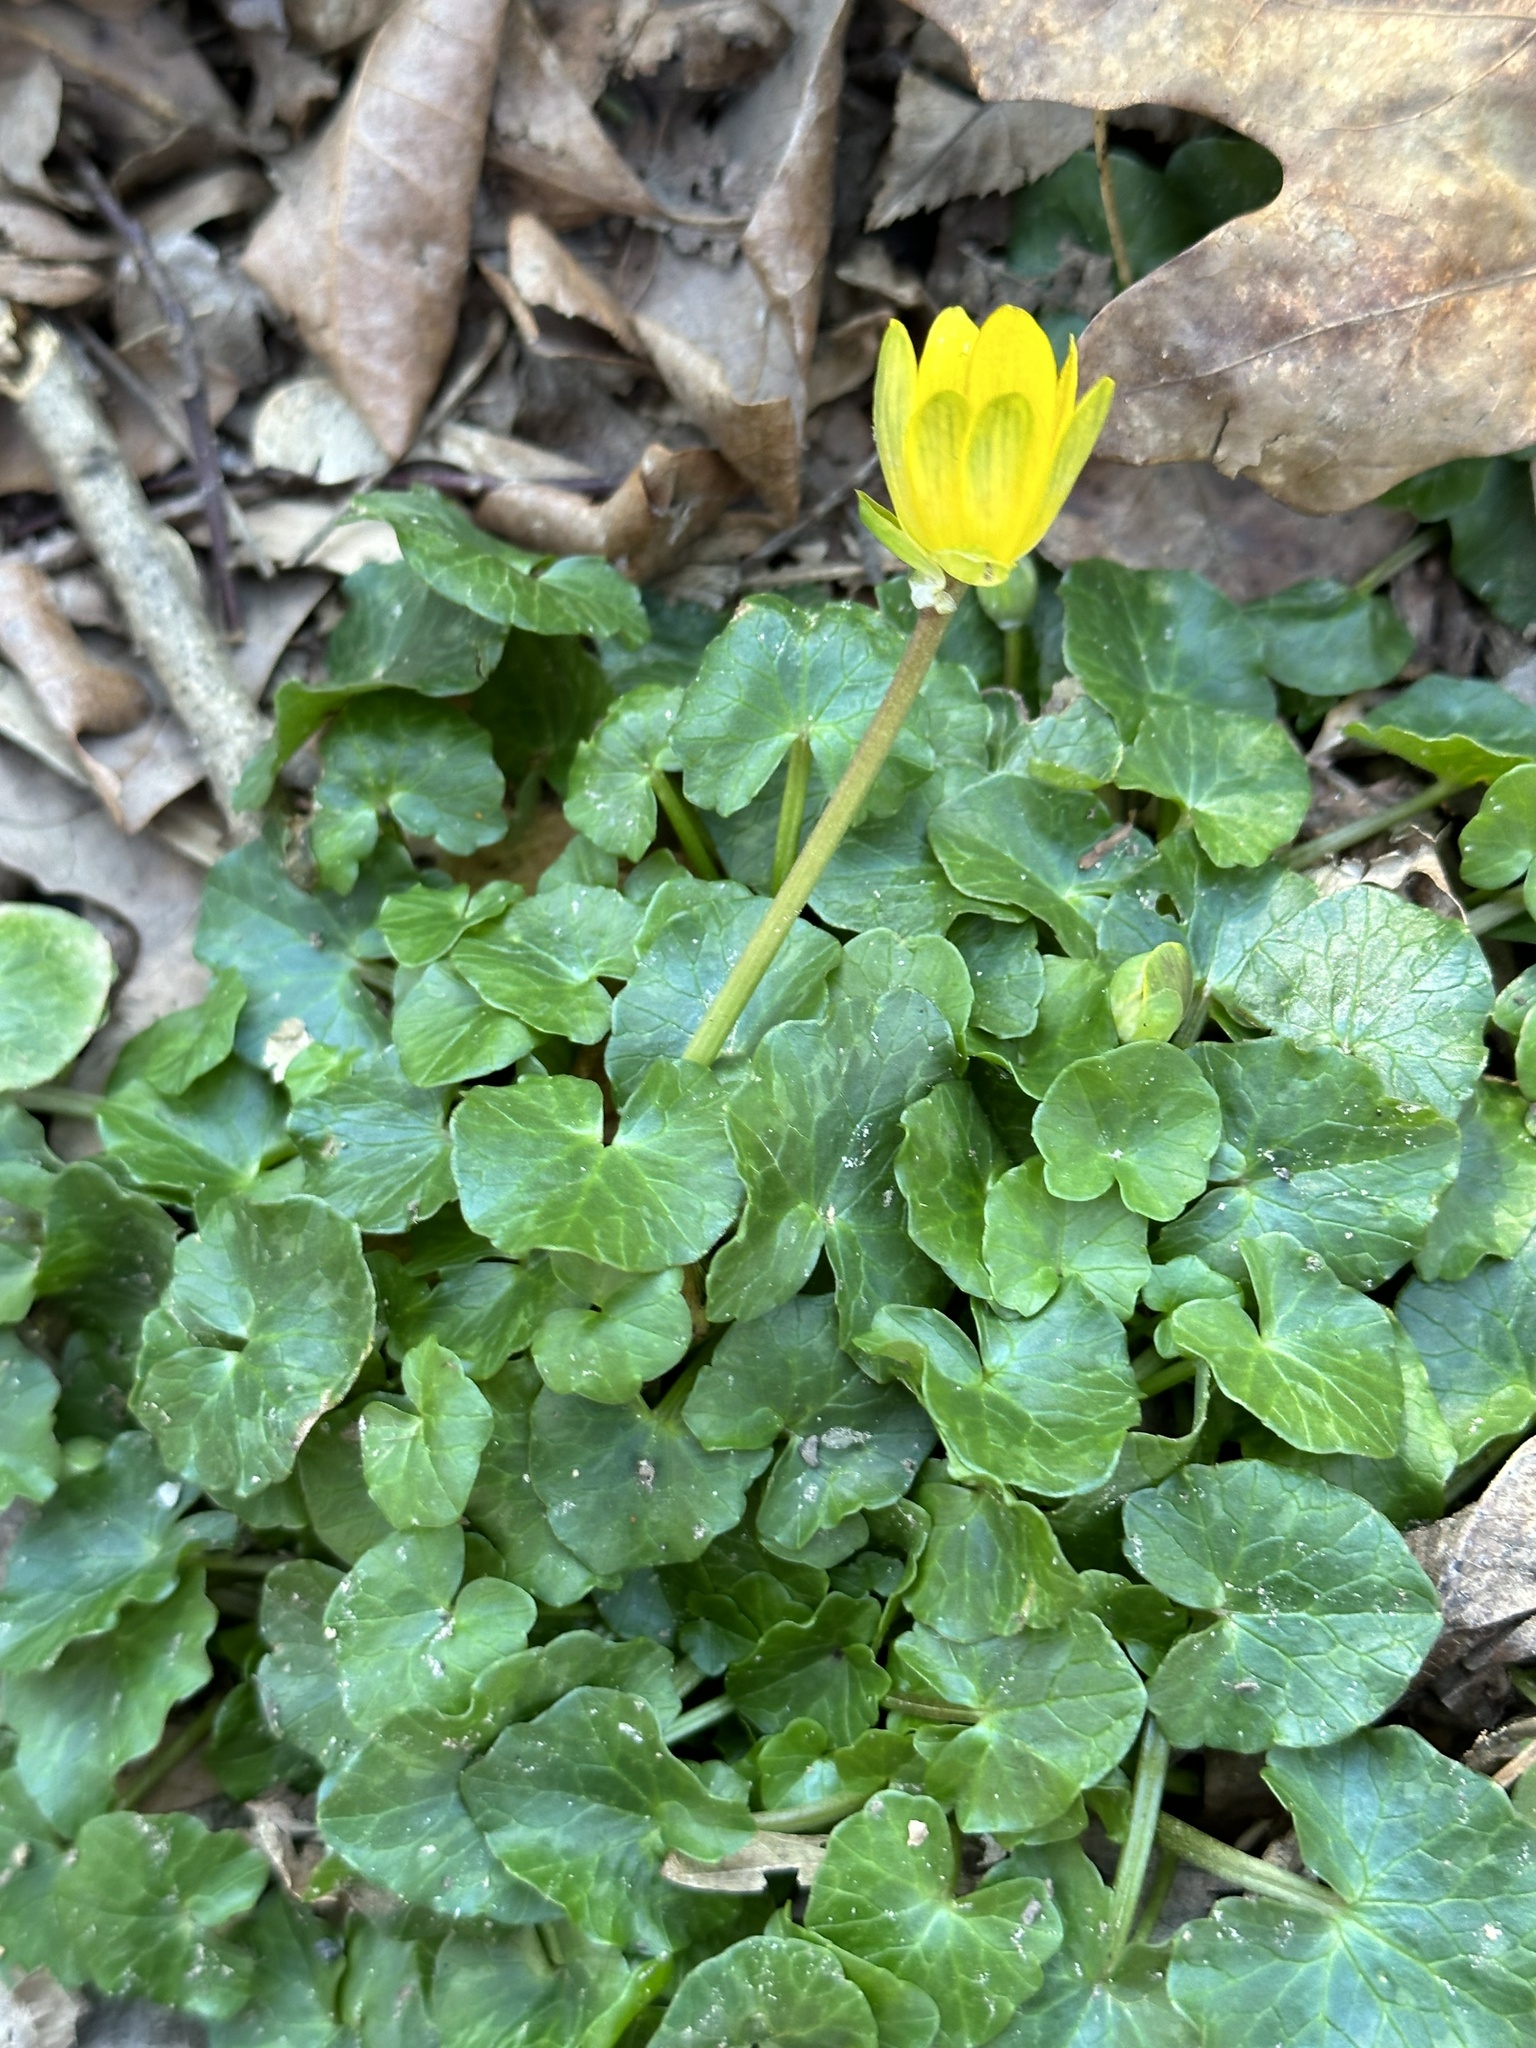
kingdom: Plantae
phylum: Tracheophyta
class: Magnoliopsida
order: Ranunculales
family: Ranunculaceae
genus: Ficaria
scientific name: Ficaria verna
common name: Lesser celandine
